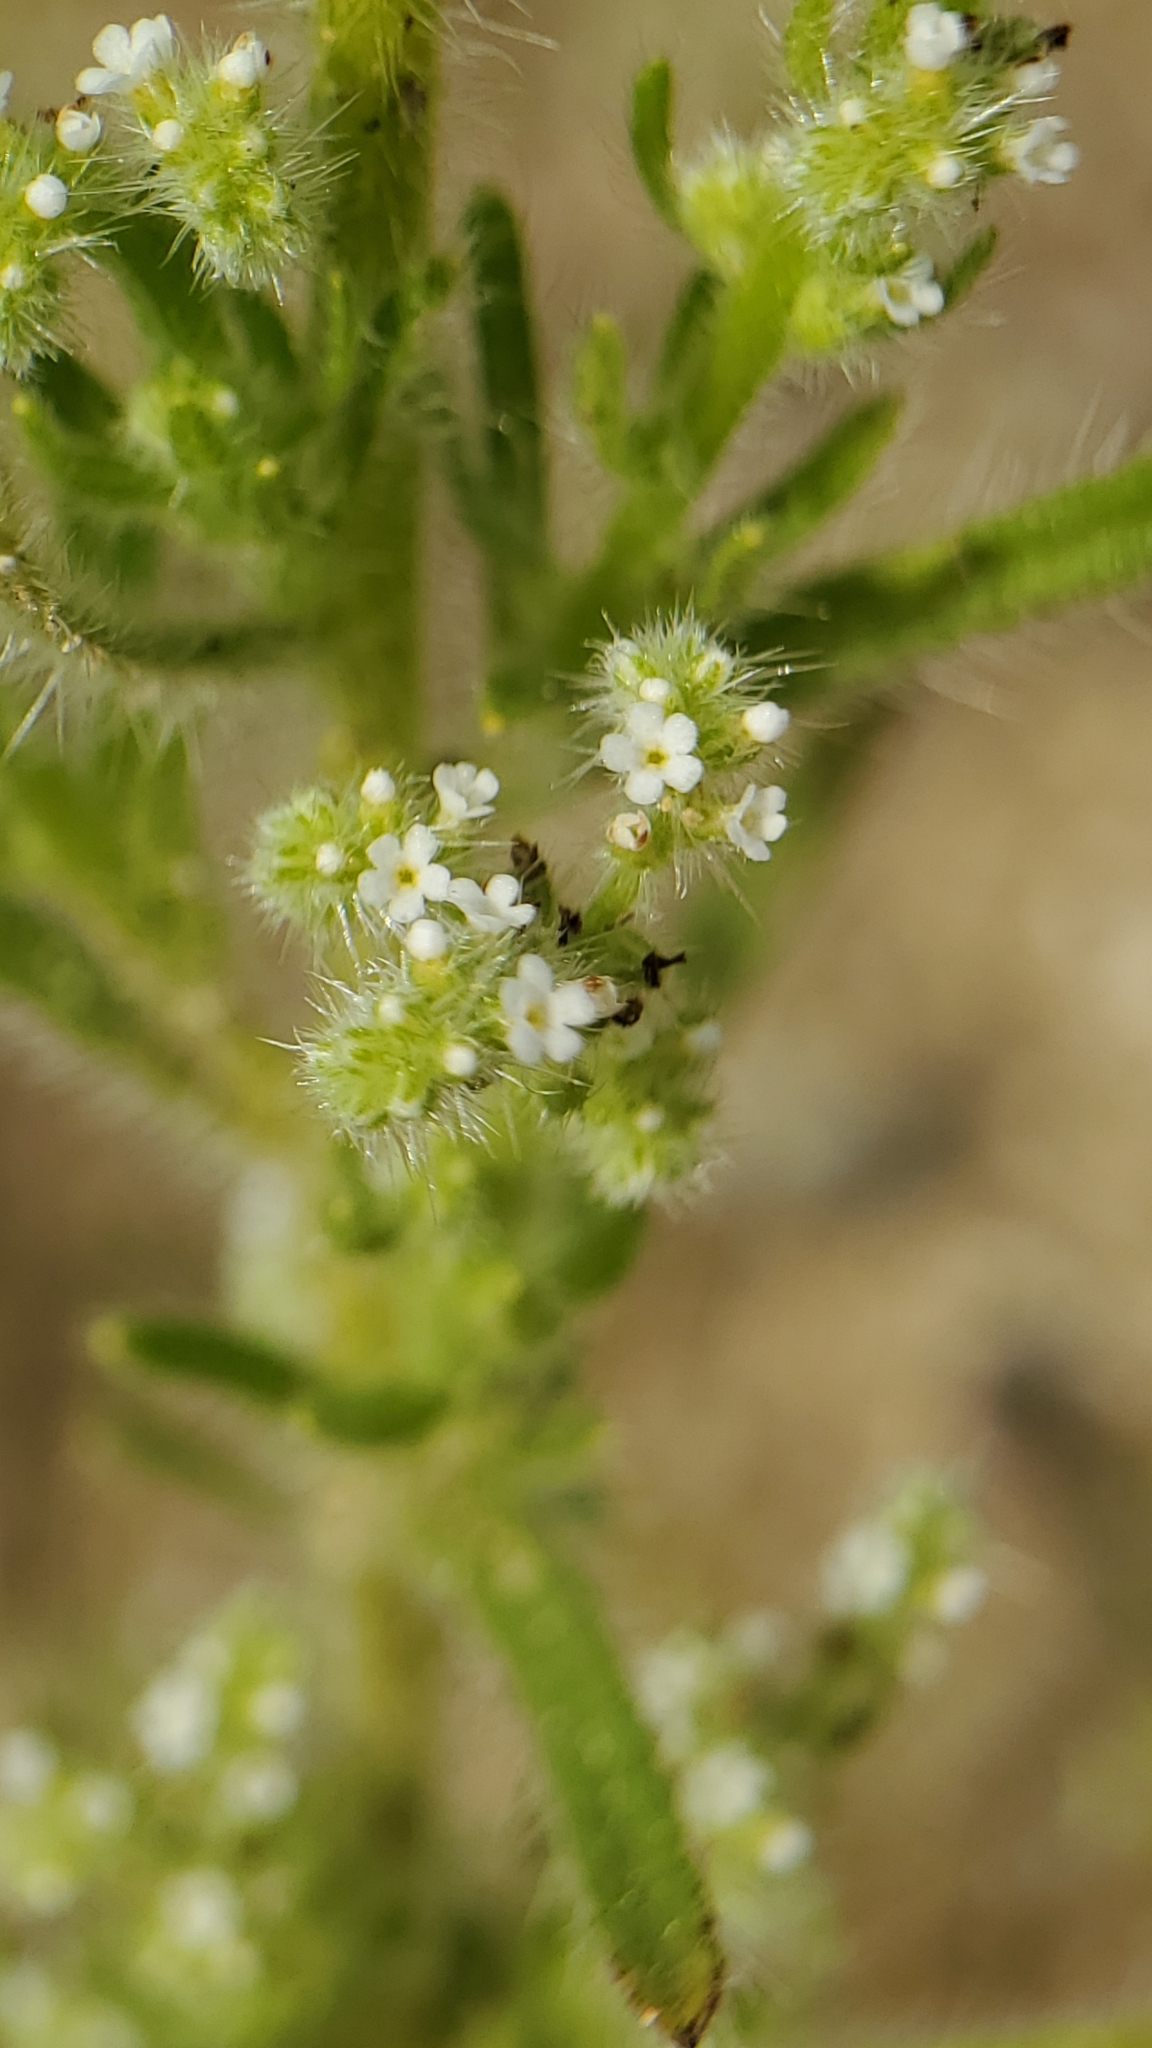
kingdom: Plantae
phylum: Tracheophyta
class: Magnoliopsida
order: Boraginales
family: Boraginaceae
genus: Cryptantha
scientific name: Cryptantha microstachys
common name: Tejon cryptantha
